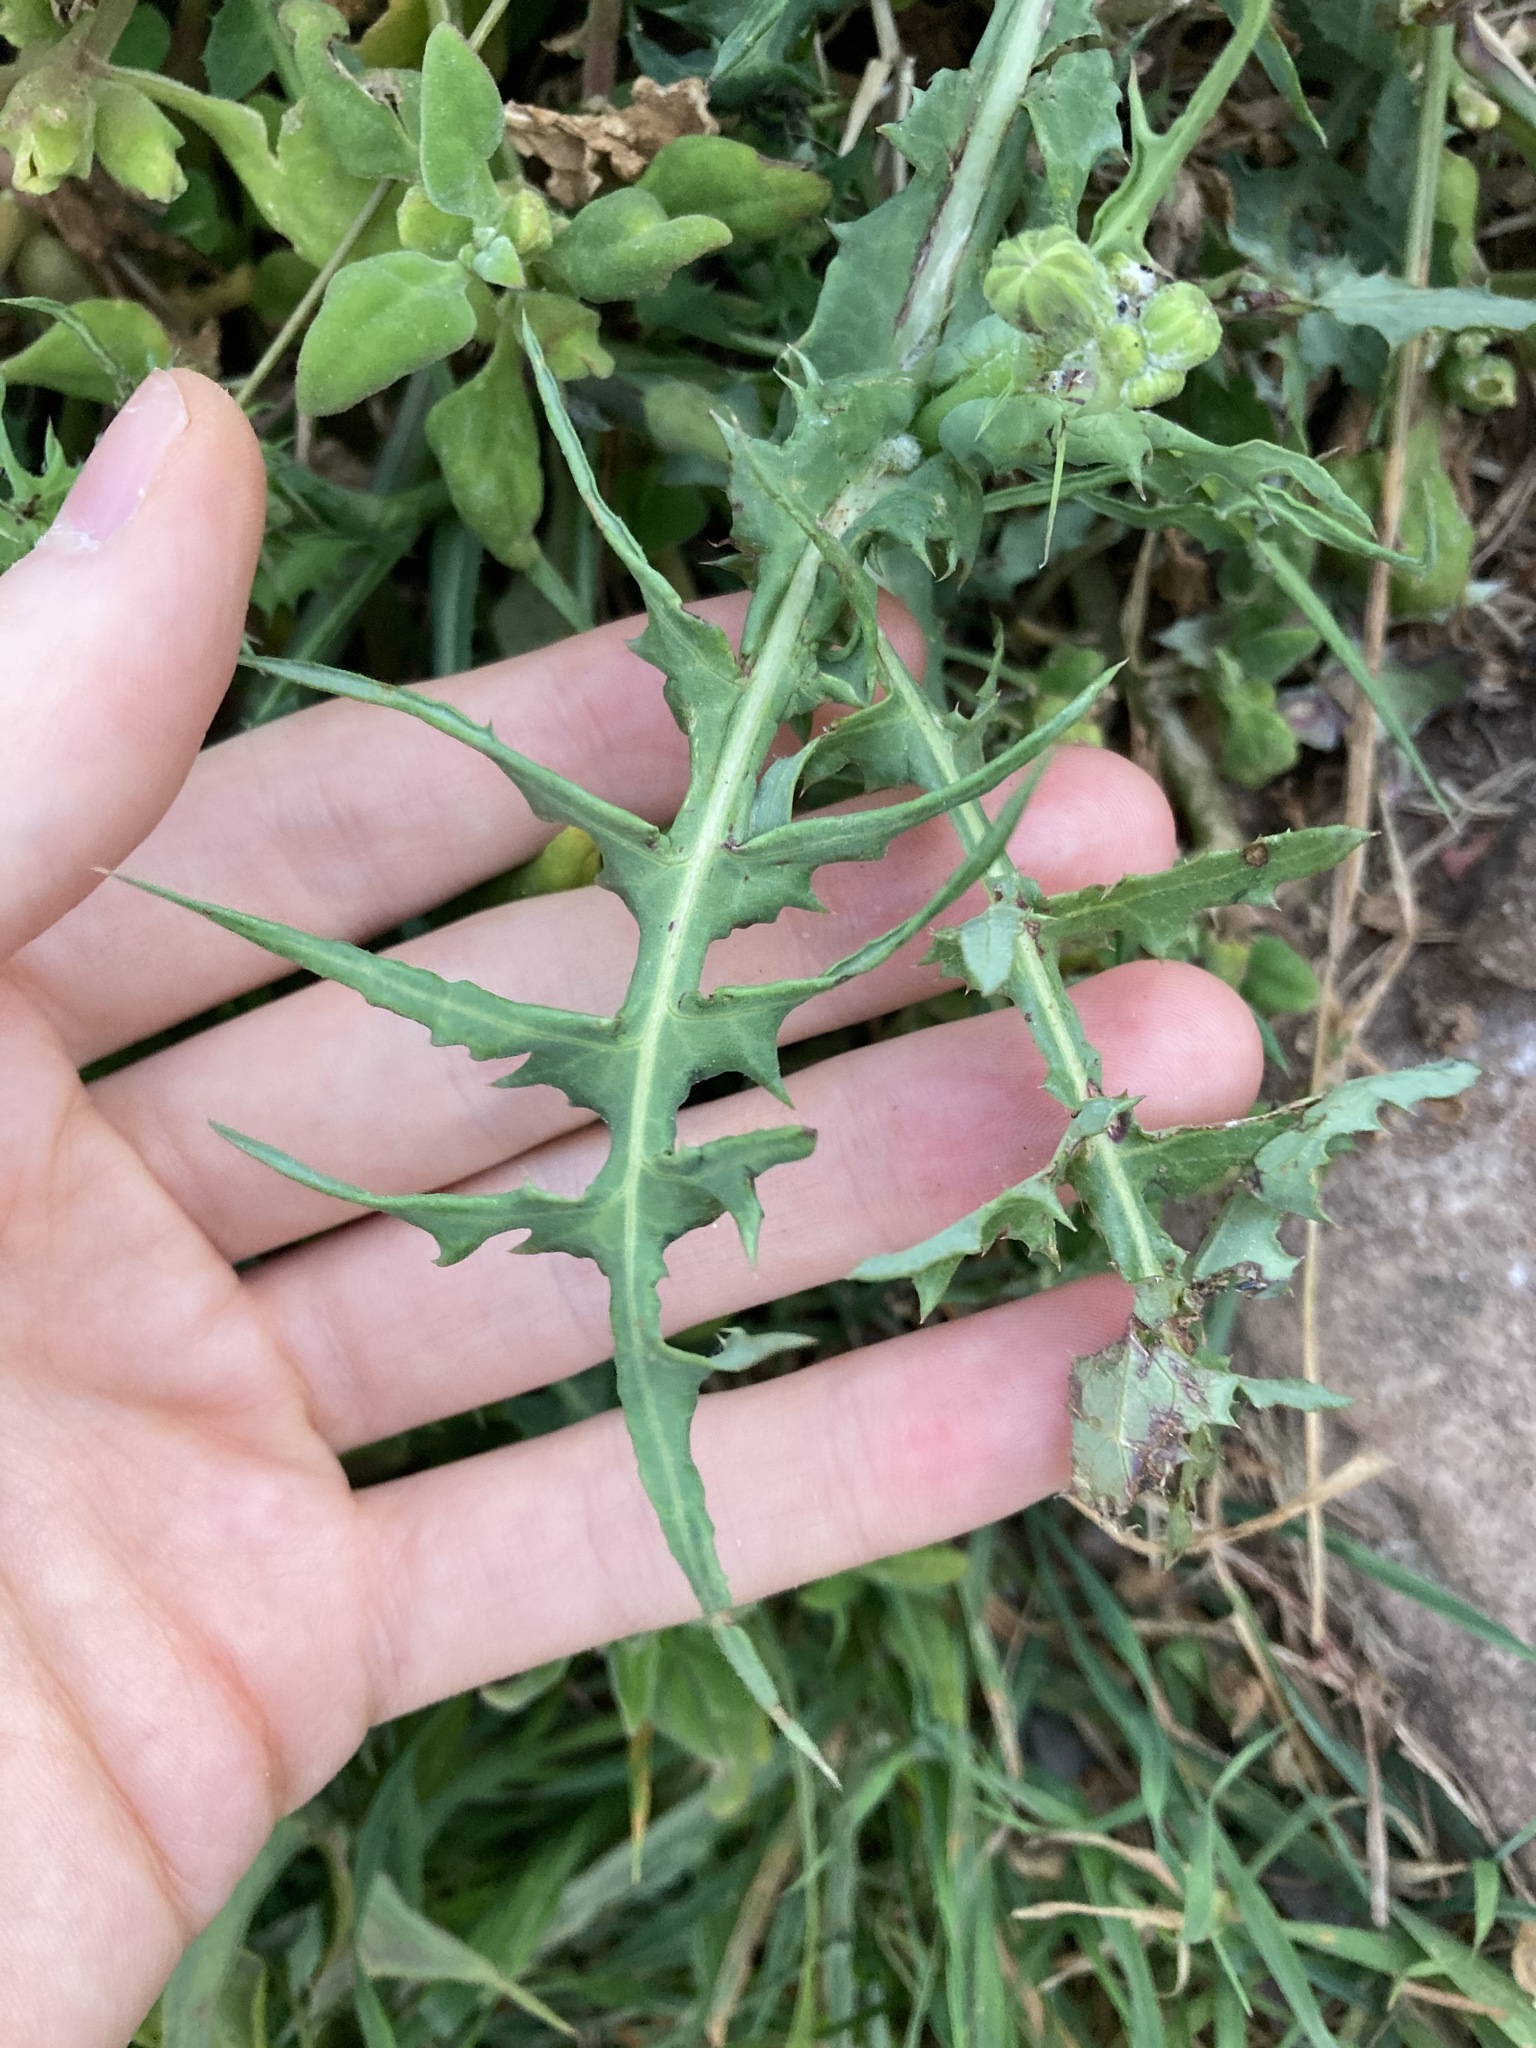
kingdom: Plantae
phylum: Tracheophyta
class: Magnoliopsida
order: Asterales
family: Asteraceae
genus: Sonchus
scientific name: Sonchus oleraceus
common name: Common sowthistle
